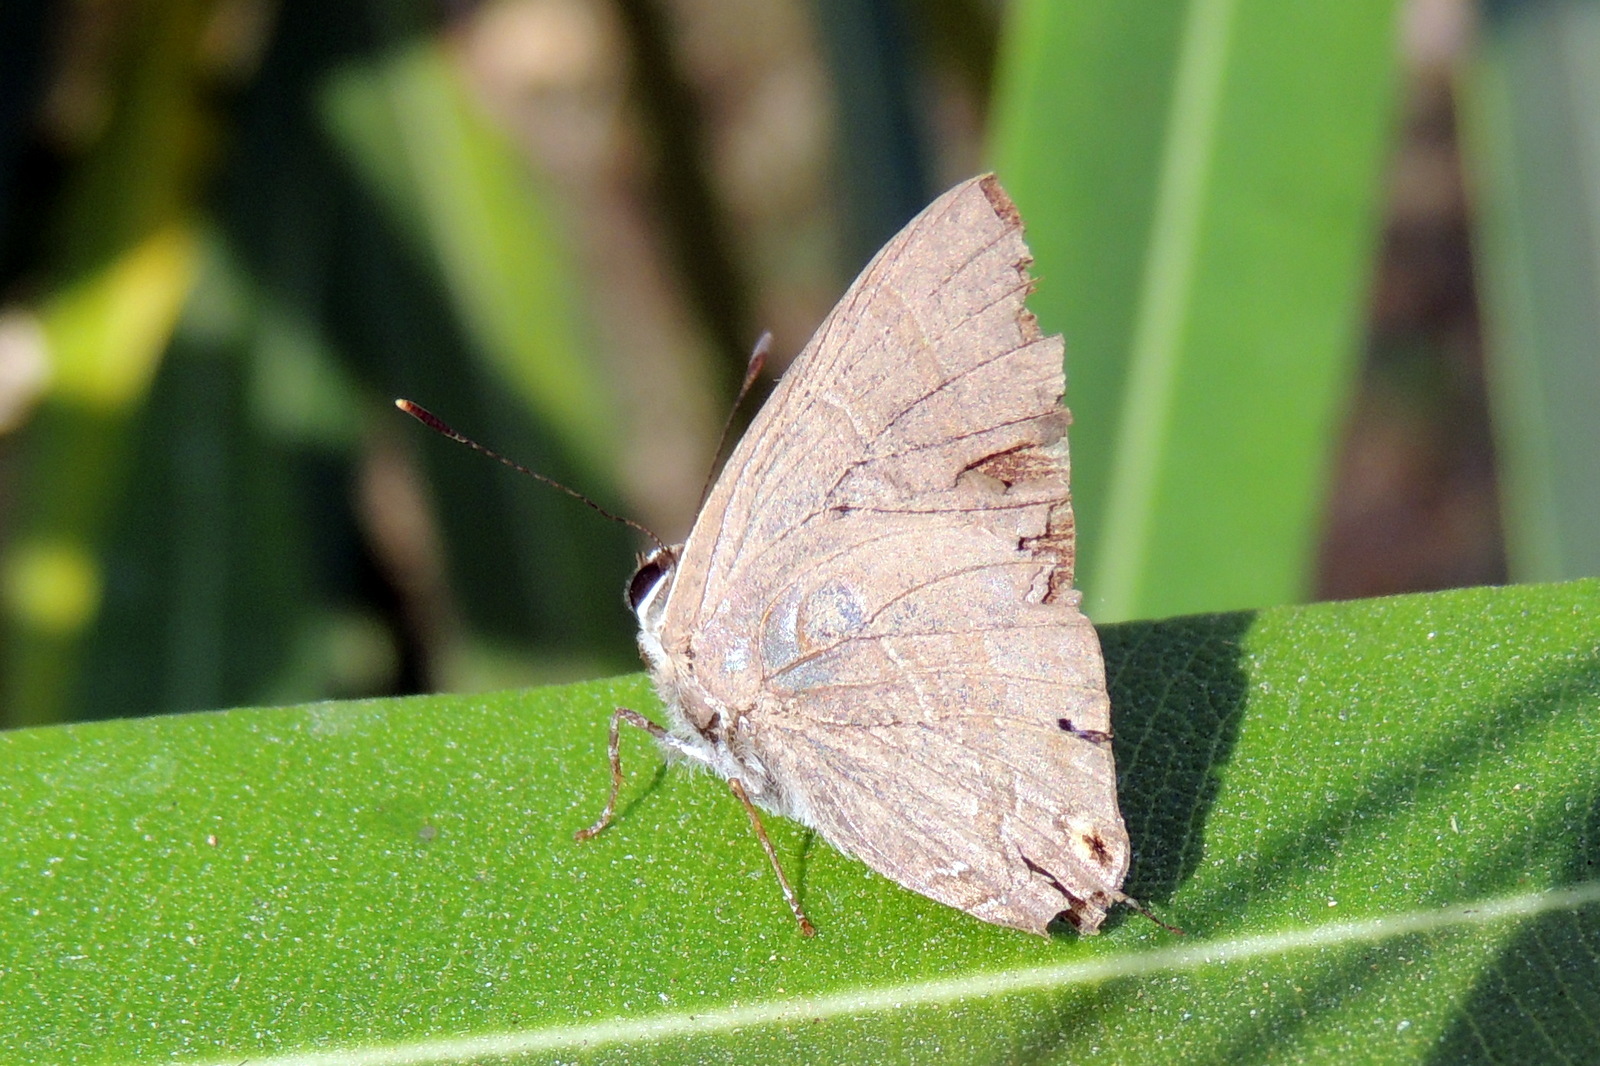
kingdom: Animalia
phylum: Arthropoda
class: Insecta
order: Lepidoptera
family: Lycaenidae
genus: Rapala
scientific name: Rapala manea
